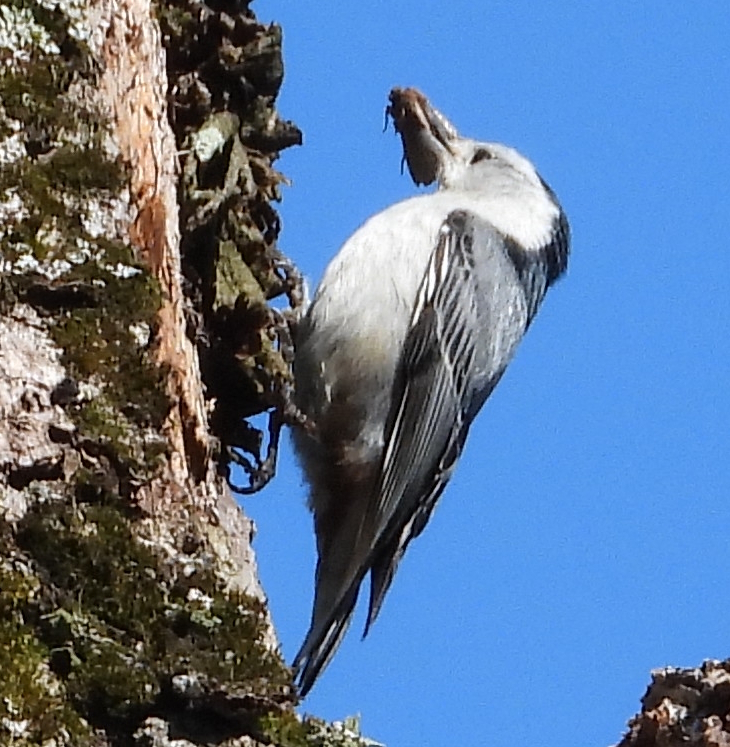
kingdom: Animalia
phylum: Chordata
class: Aves
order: Passeriformes
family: Sittidae
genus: Sitta
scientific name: Sitta carolinensis
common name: White-breasted nuthatch
